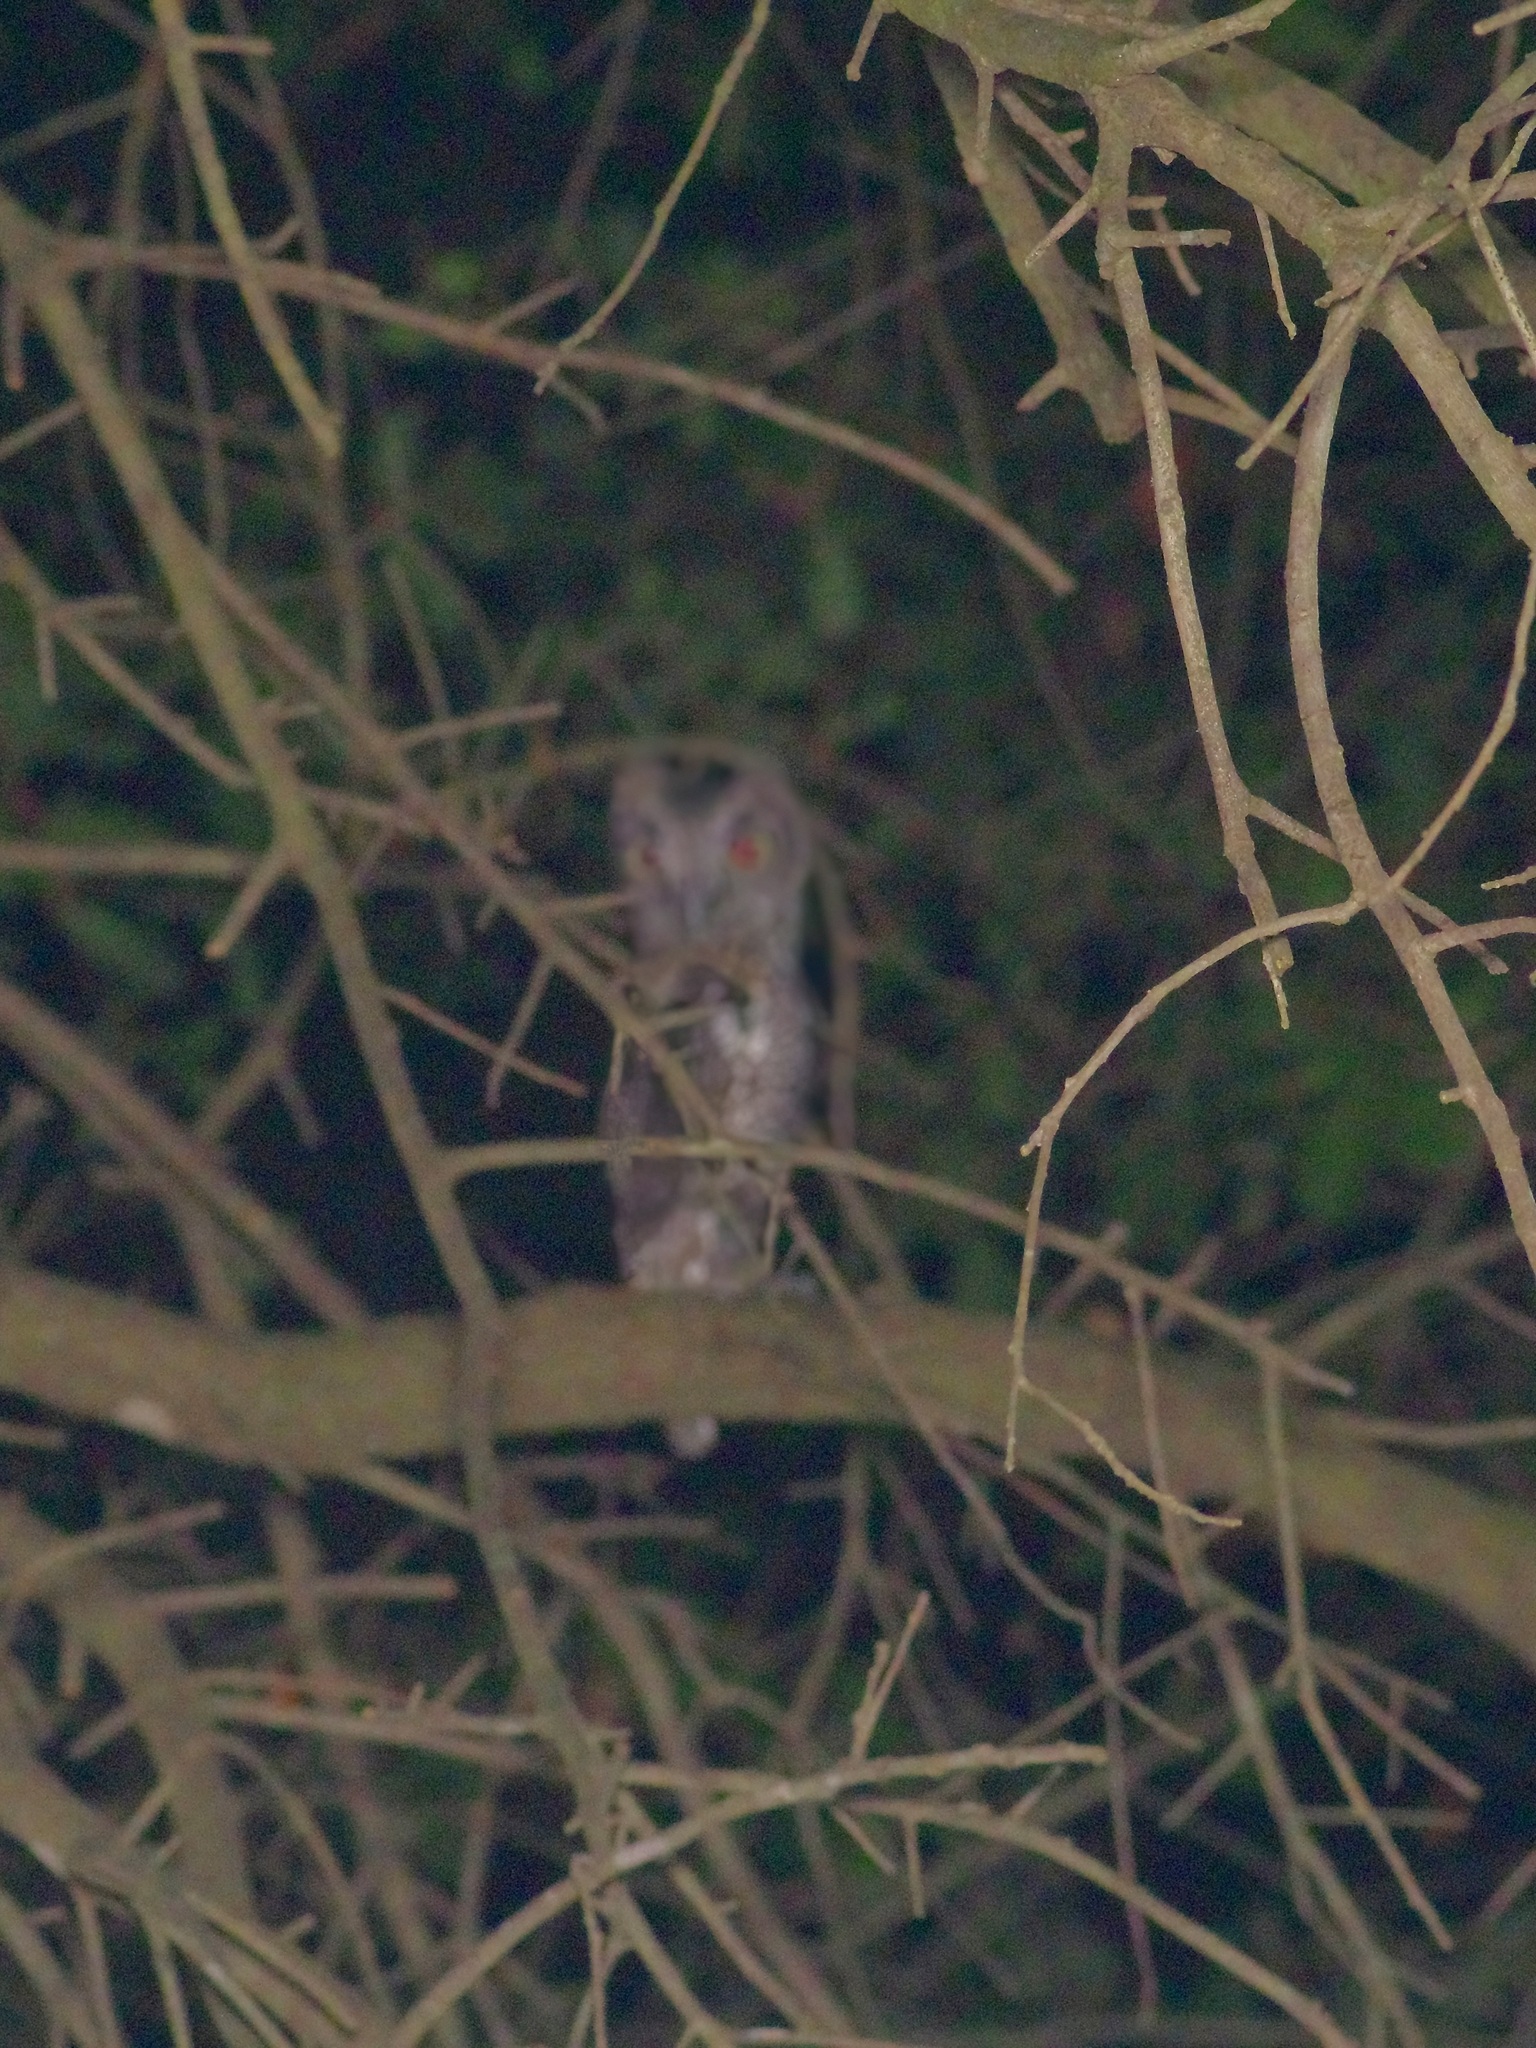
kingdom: Animalia
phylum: Chordata
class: Aves
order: Strigiformes
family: Strigidae
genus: Megascops
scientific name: Megascops asio
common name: Eastern screech-owl
